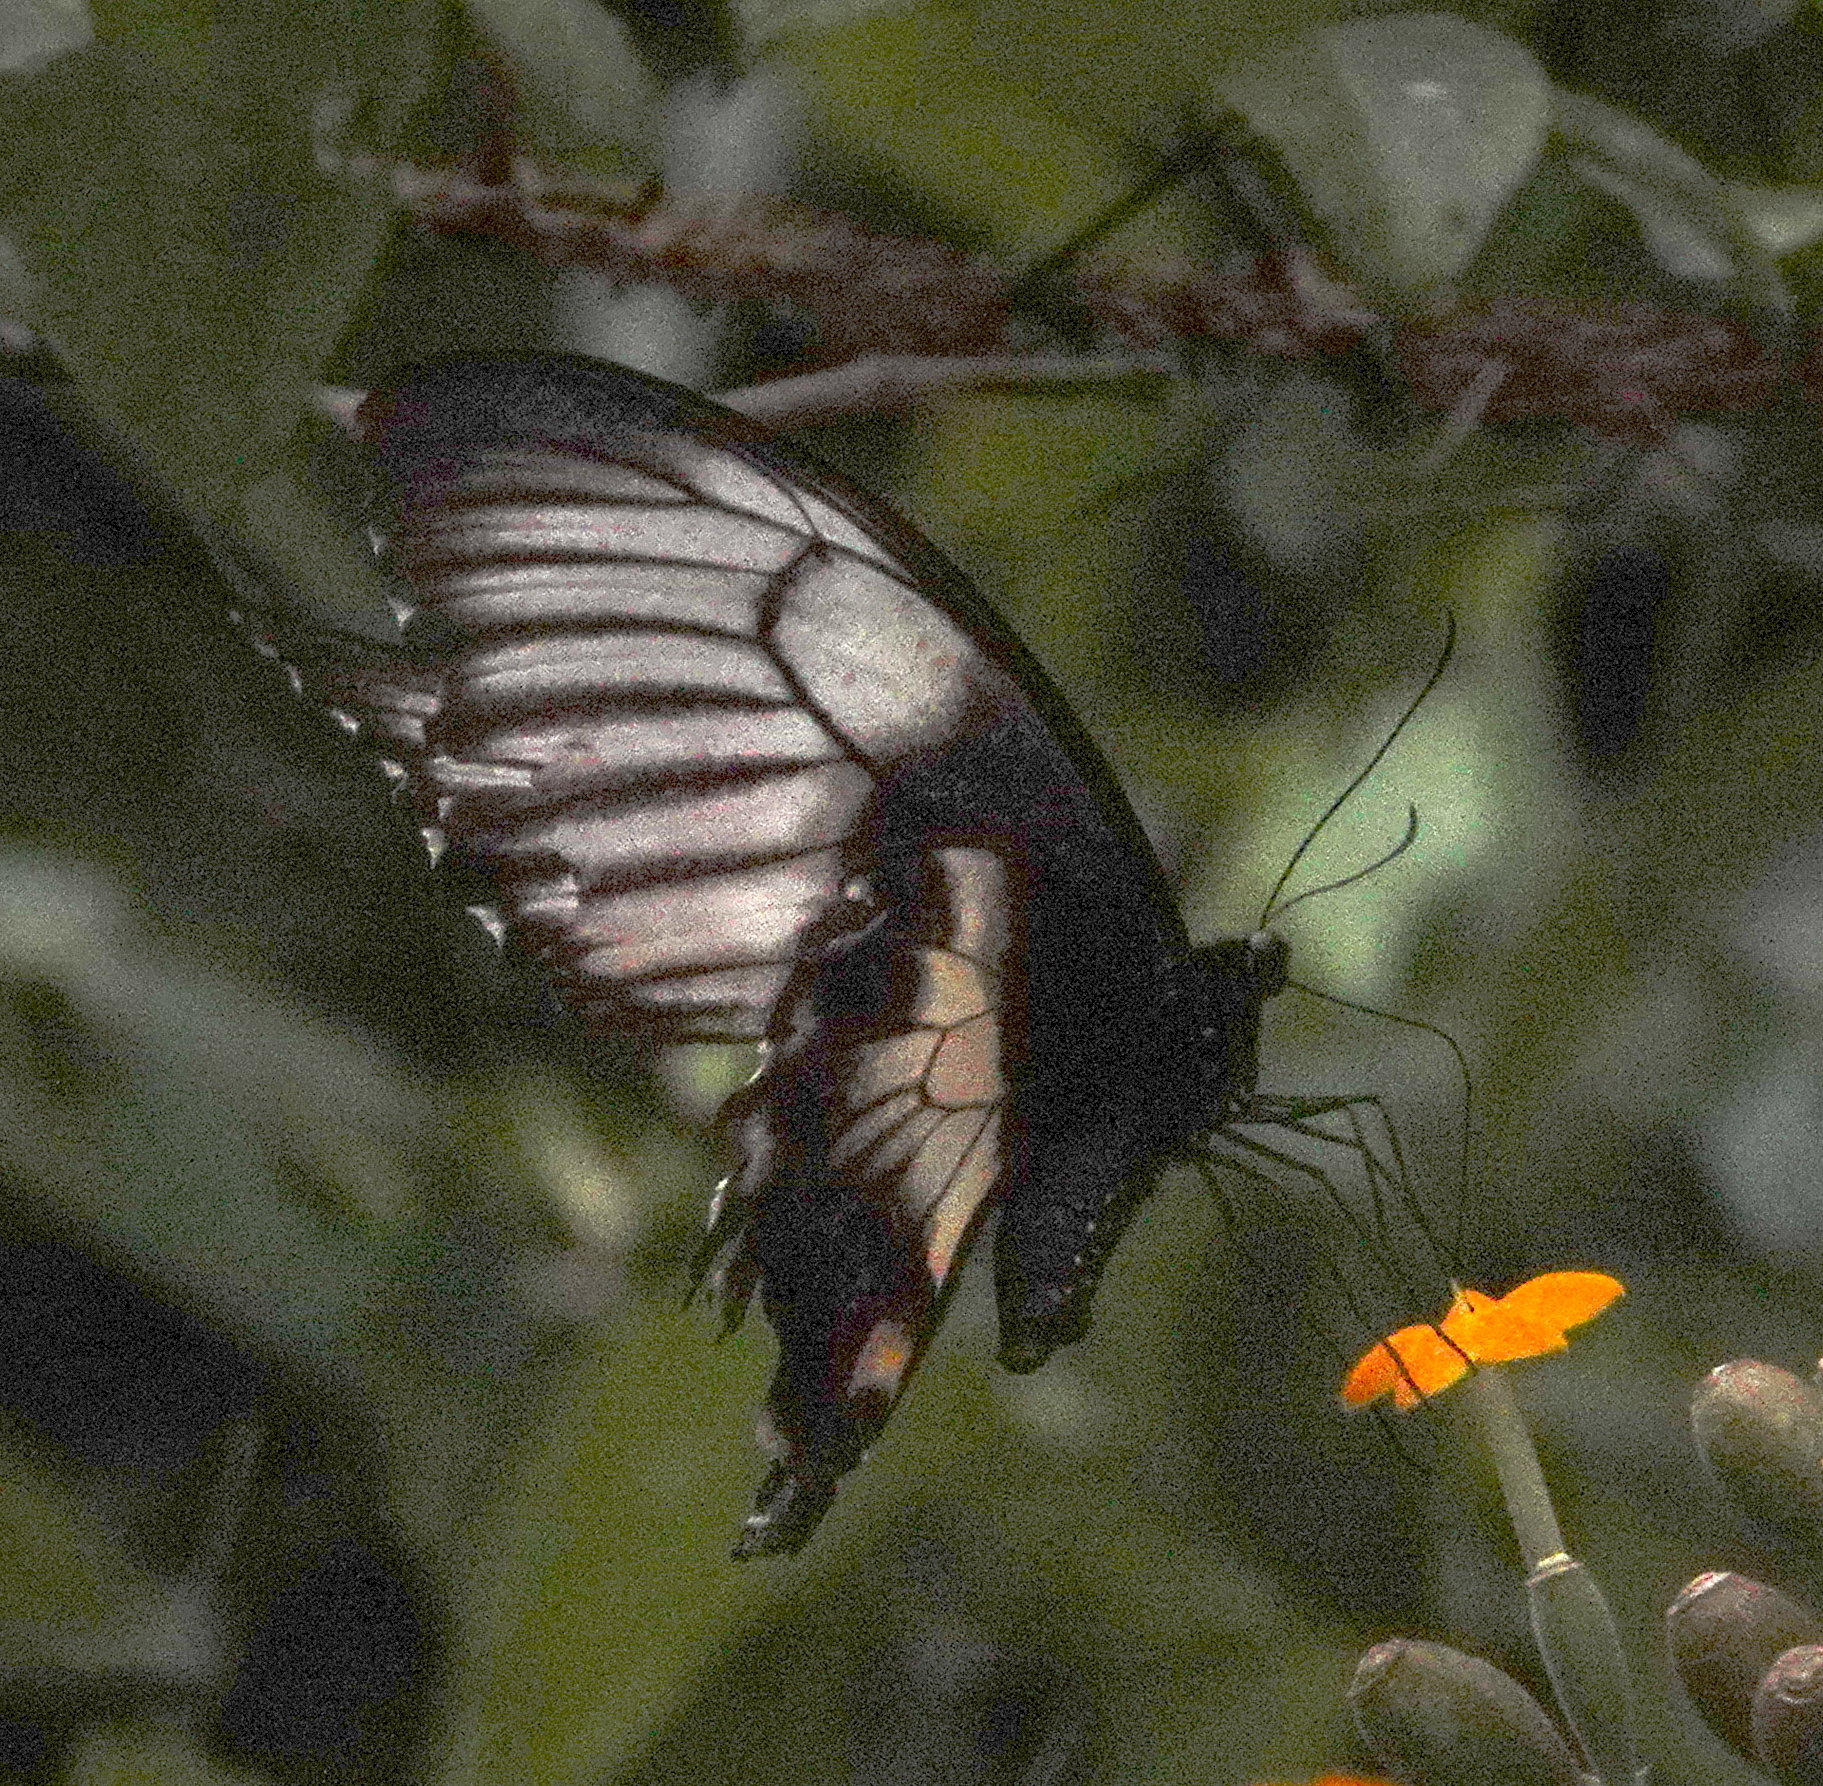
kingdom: Animalia
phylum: Arthropoda
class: Insecta
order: Lepidoptera
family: Papilionidae
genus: Papilio
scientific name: Papilio gambrisius
